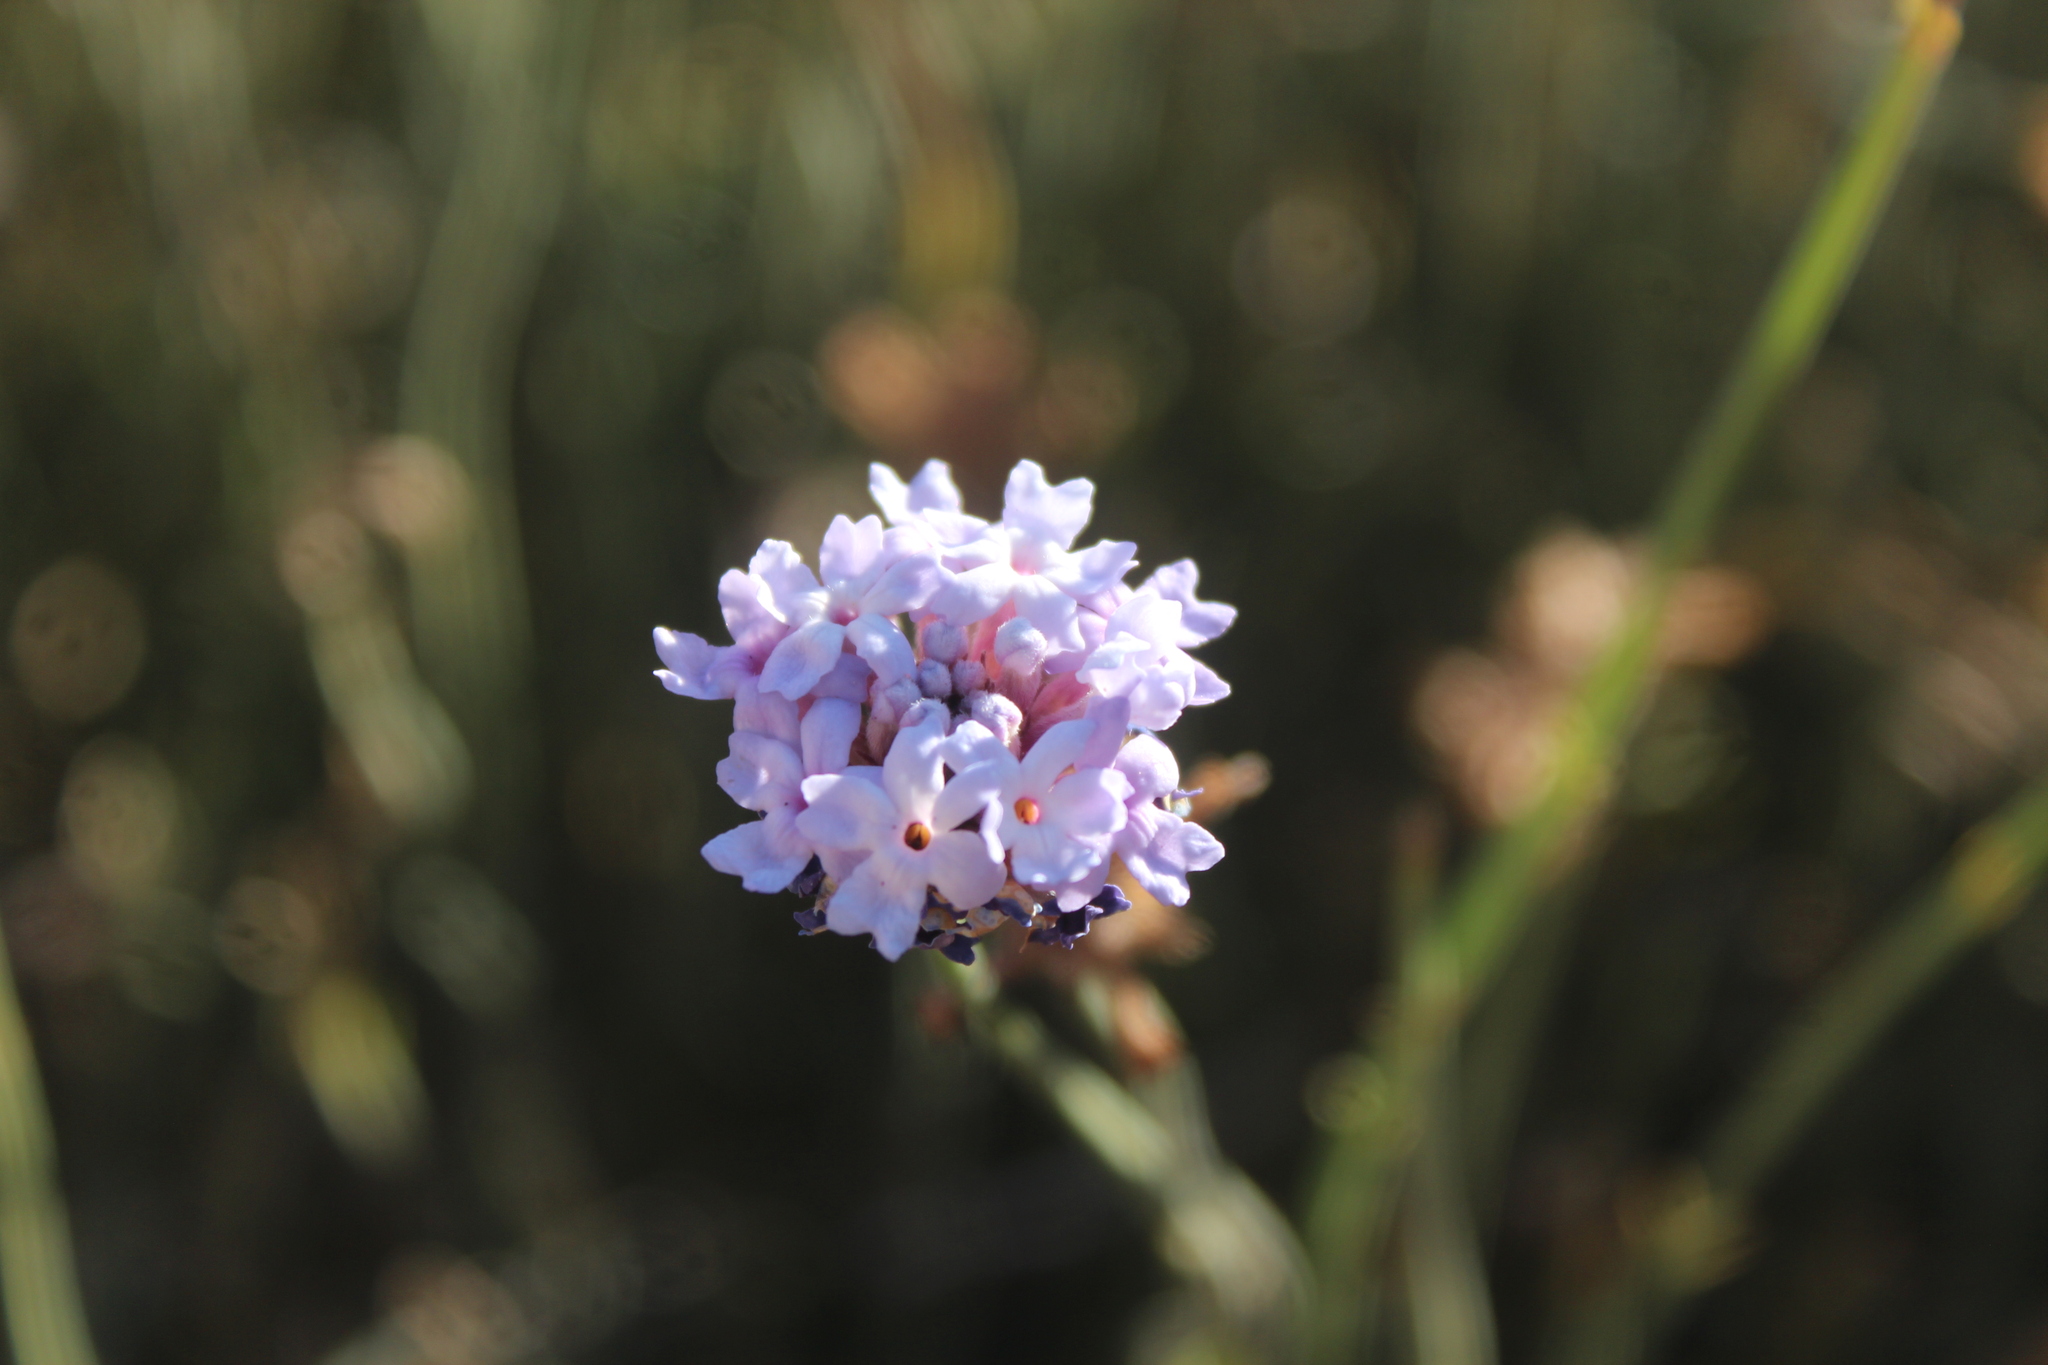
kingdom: Plantae
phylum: Tracheophyta
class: Magnoliopsida
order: Lamiales
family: Verbenaceae
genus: Junellia
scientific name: Junellia spathulata
